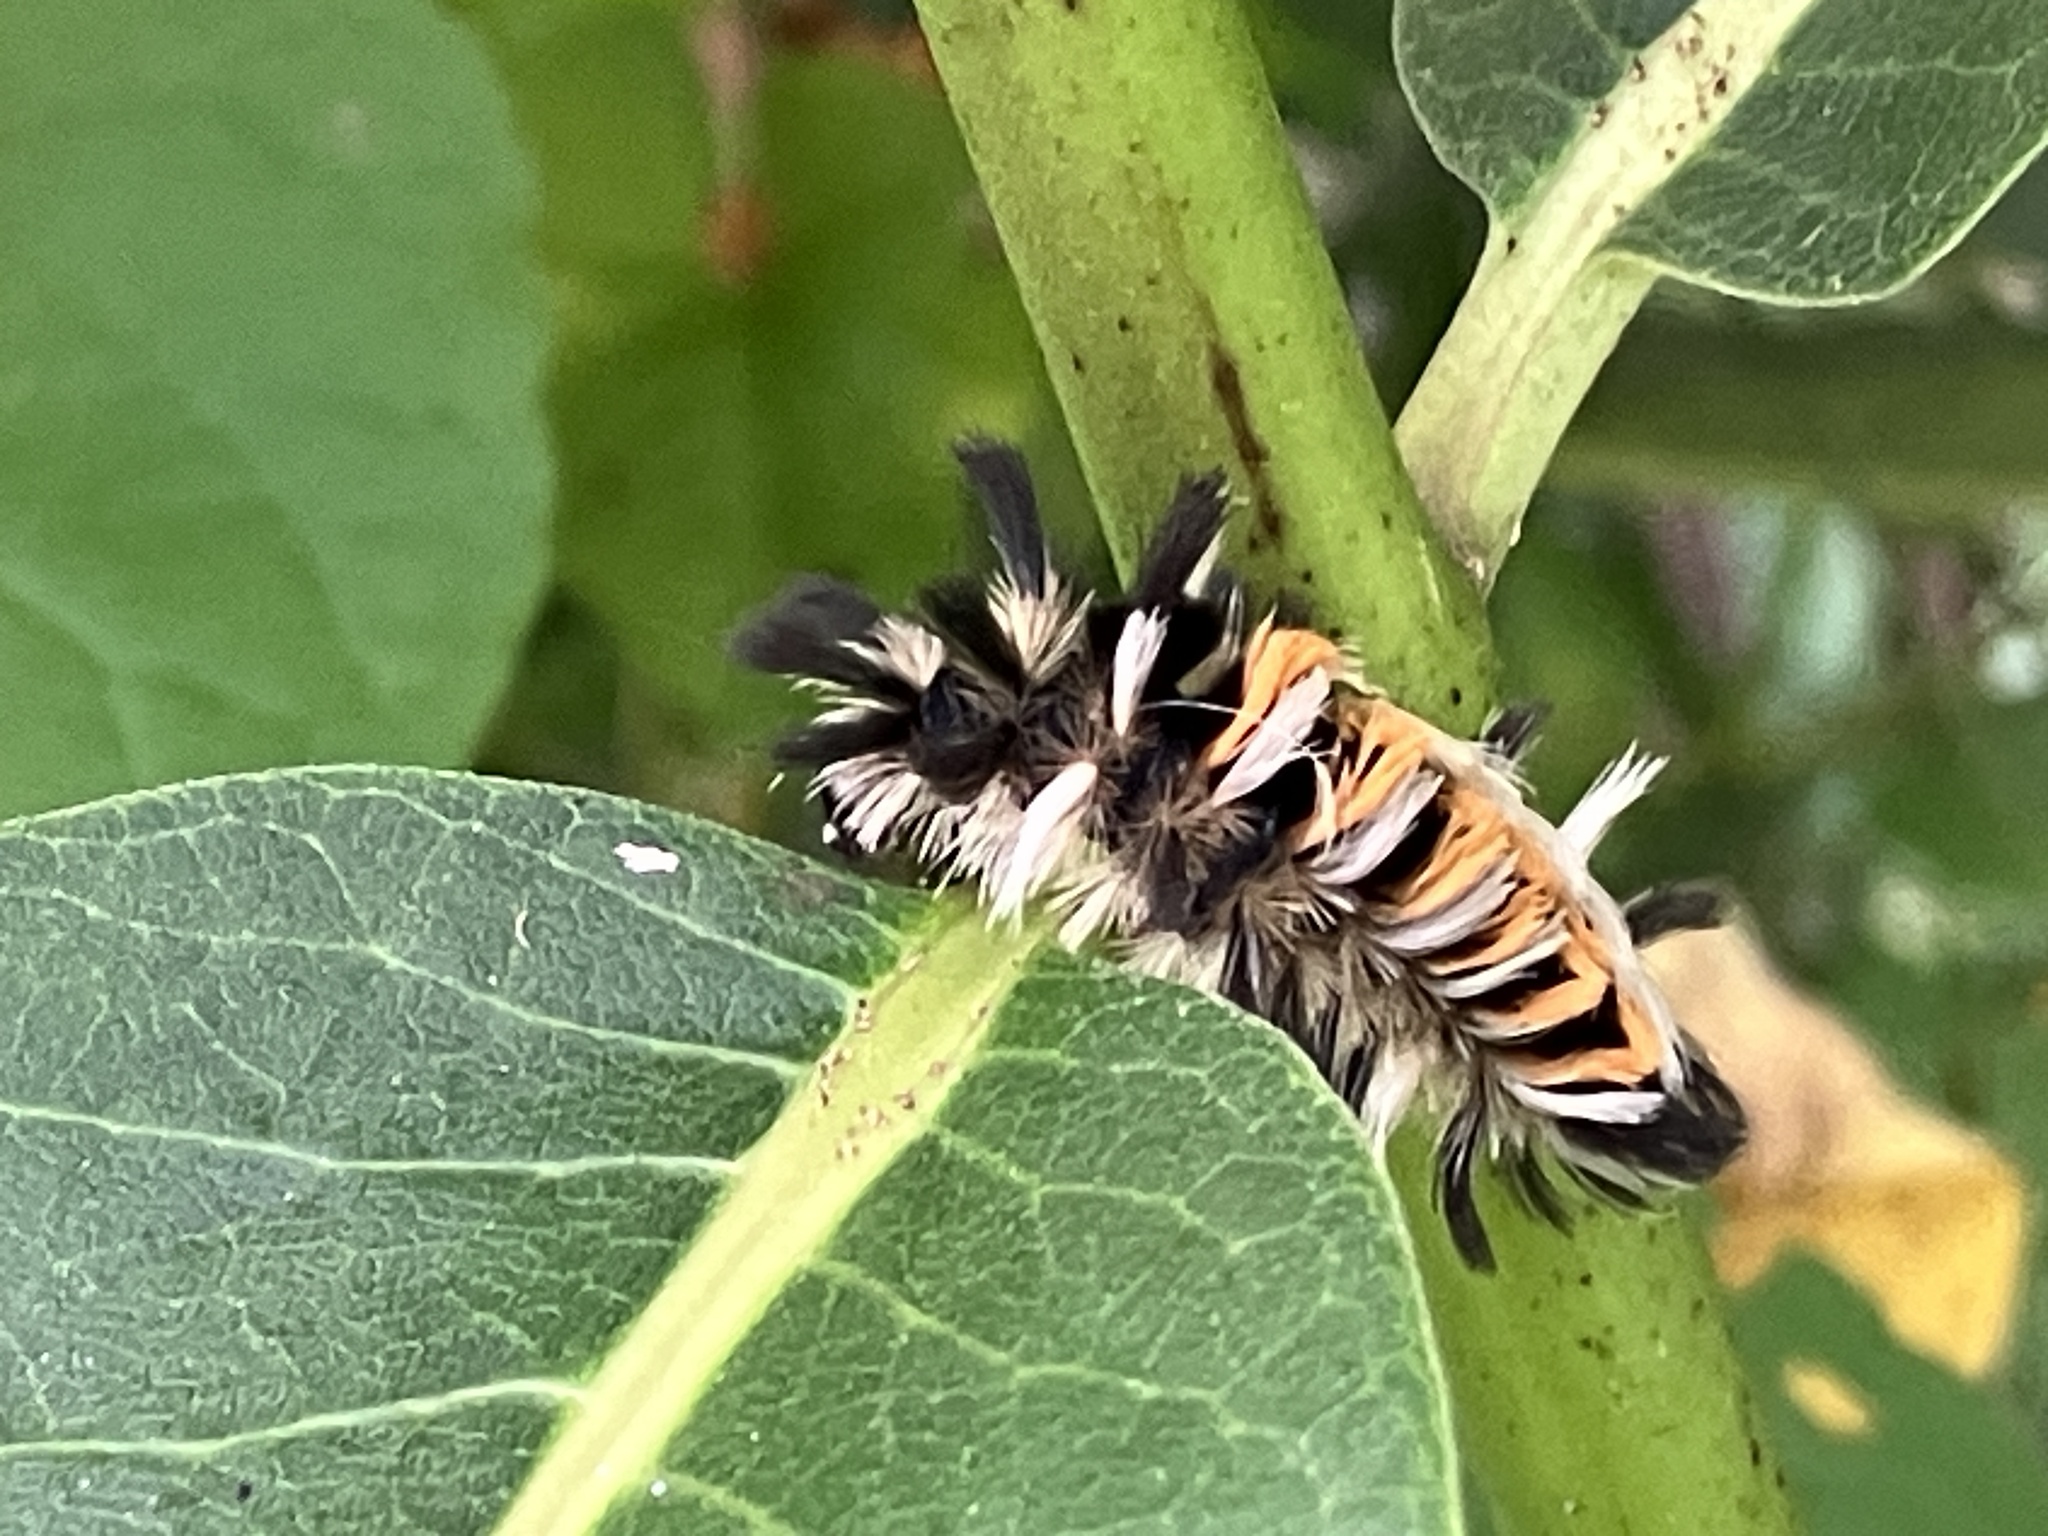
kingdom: Animalia
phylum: Arthropoda
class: Insecta
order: Lepidoptera
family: Erebidae
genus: Euchaetes
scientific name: Euchaetes egle
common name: Milkweed tussock moth
